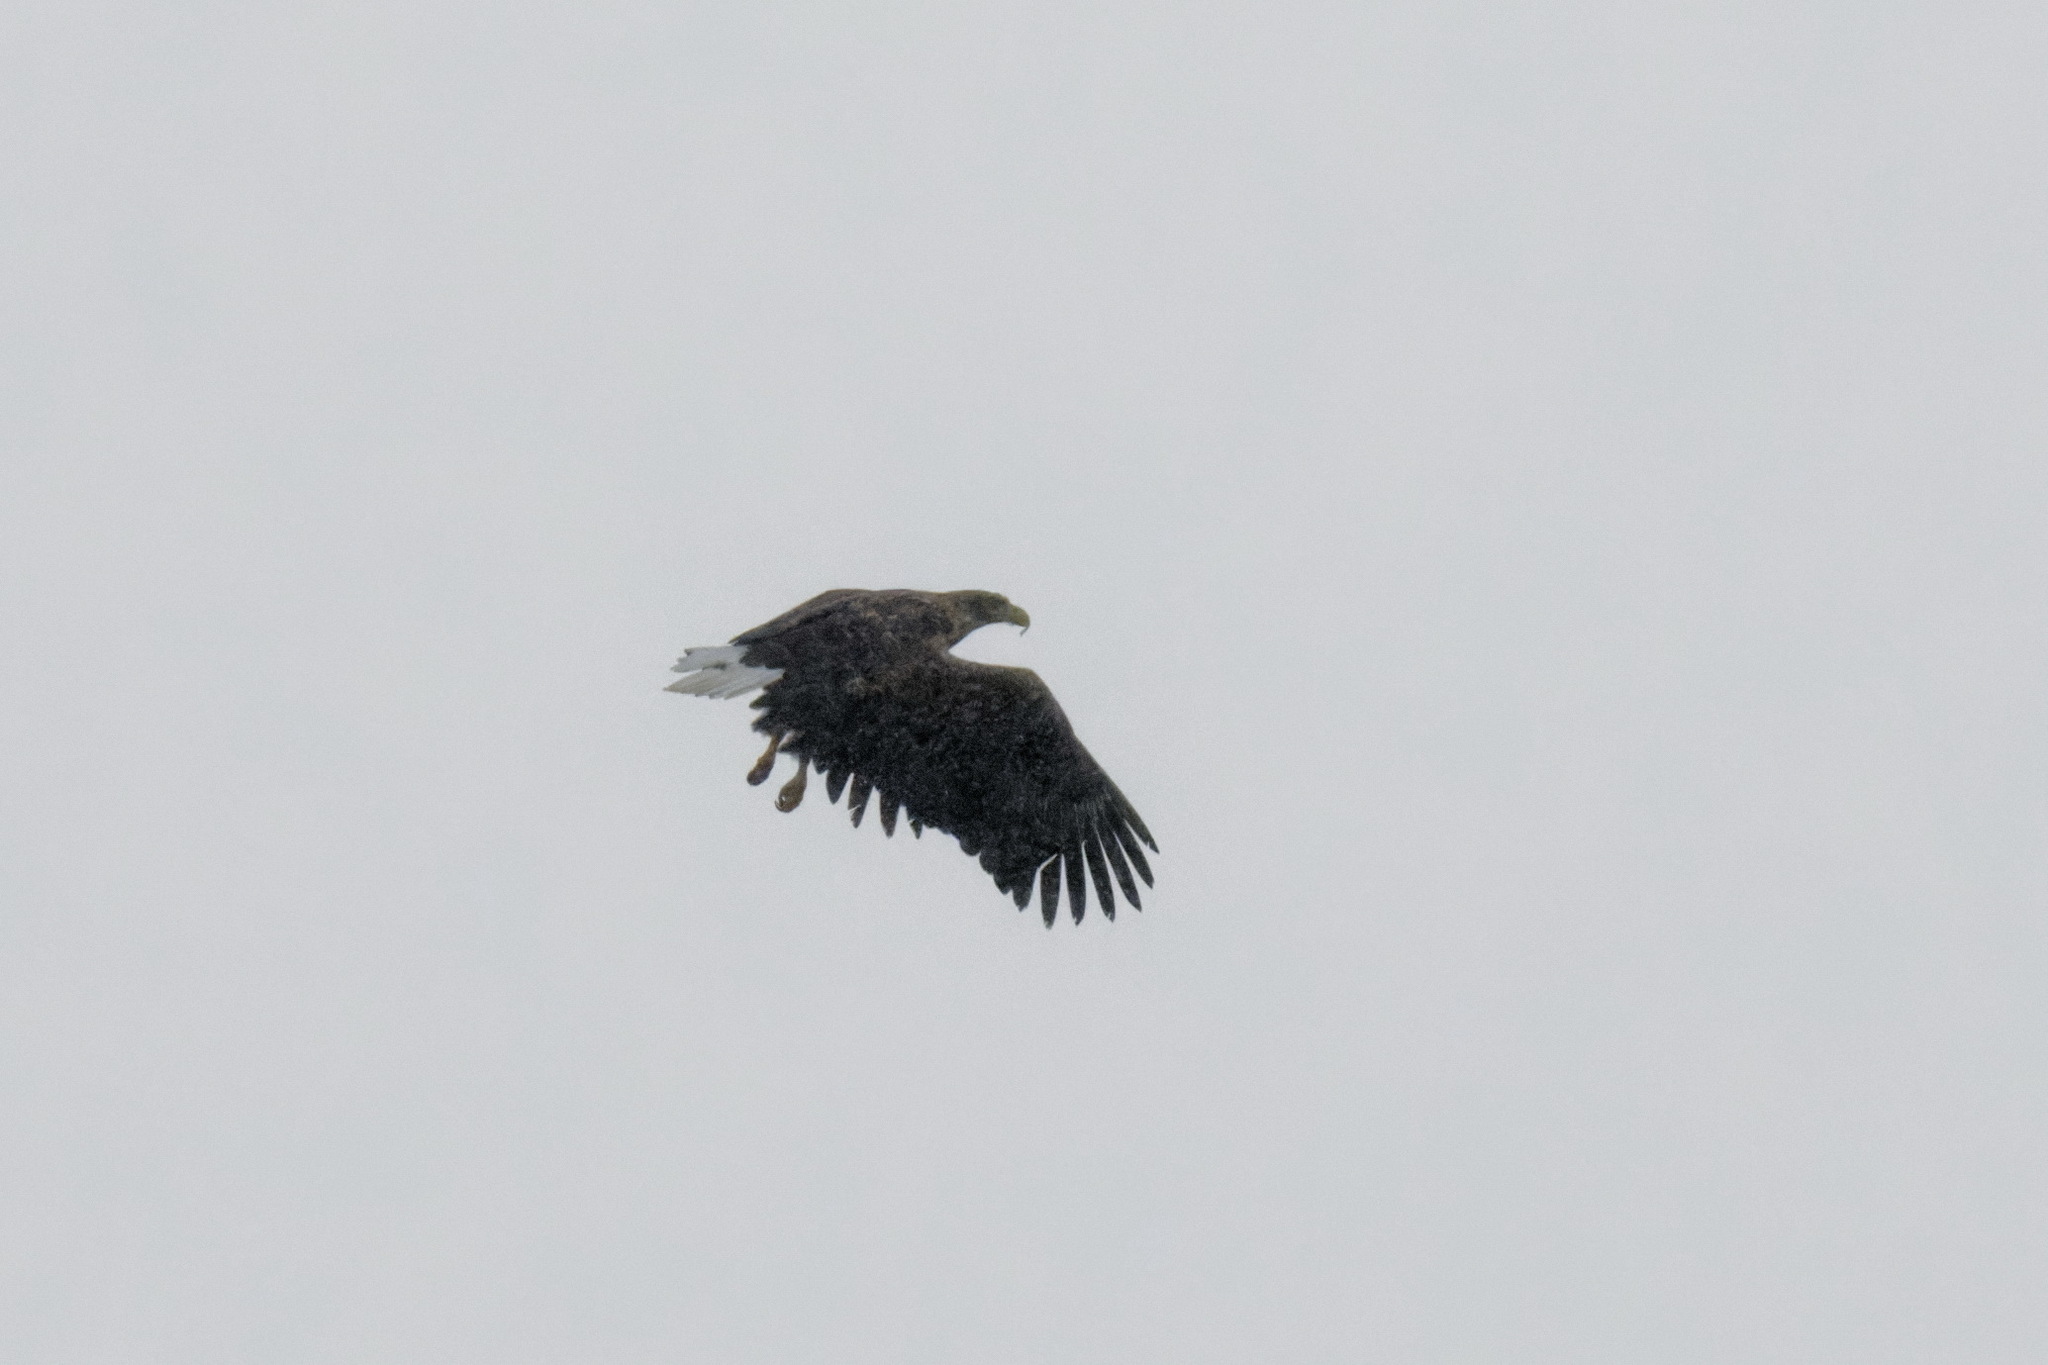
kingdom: Animalia
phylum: Chordata
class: Aves
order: Accipitriformes
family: Accipitridae
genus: Haliaeetus
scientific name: Haliaeetus albicilla
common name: White-tailed eagle
